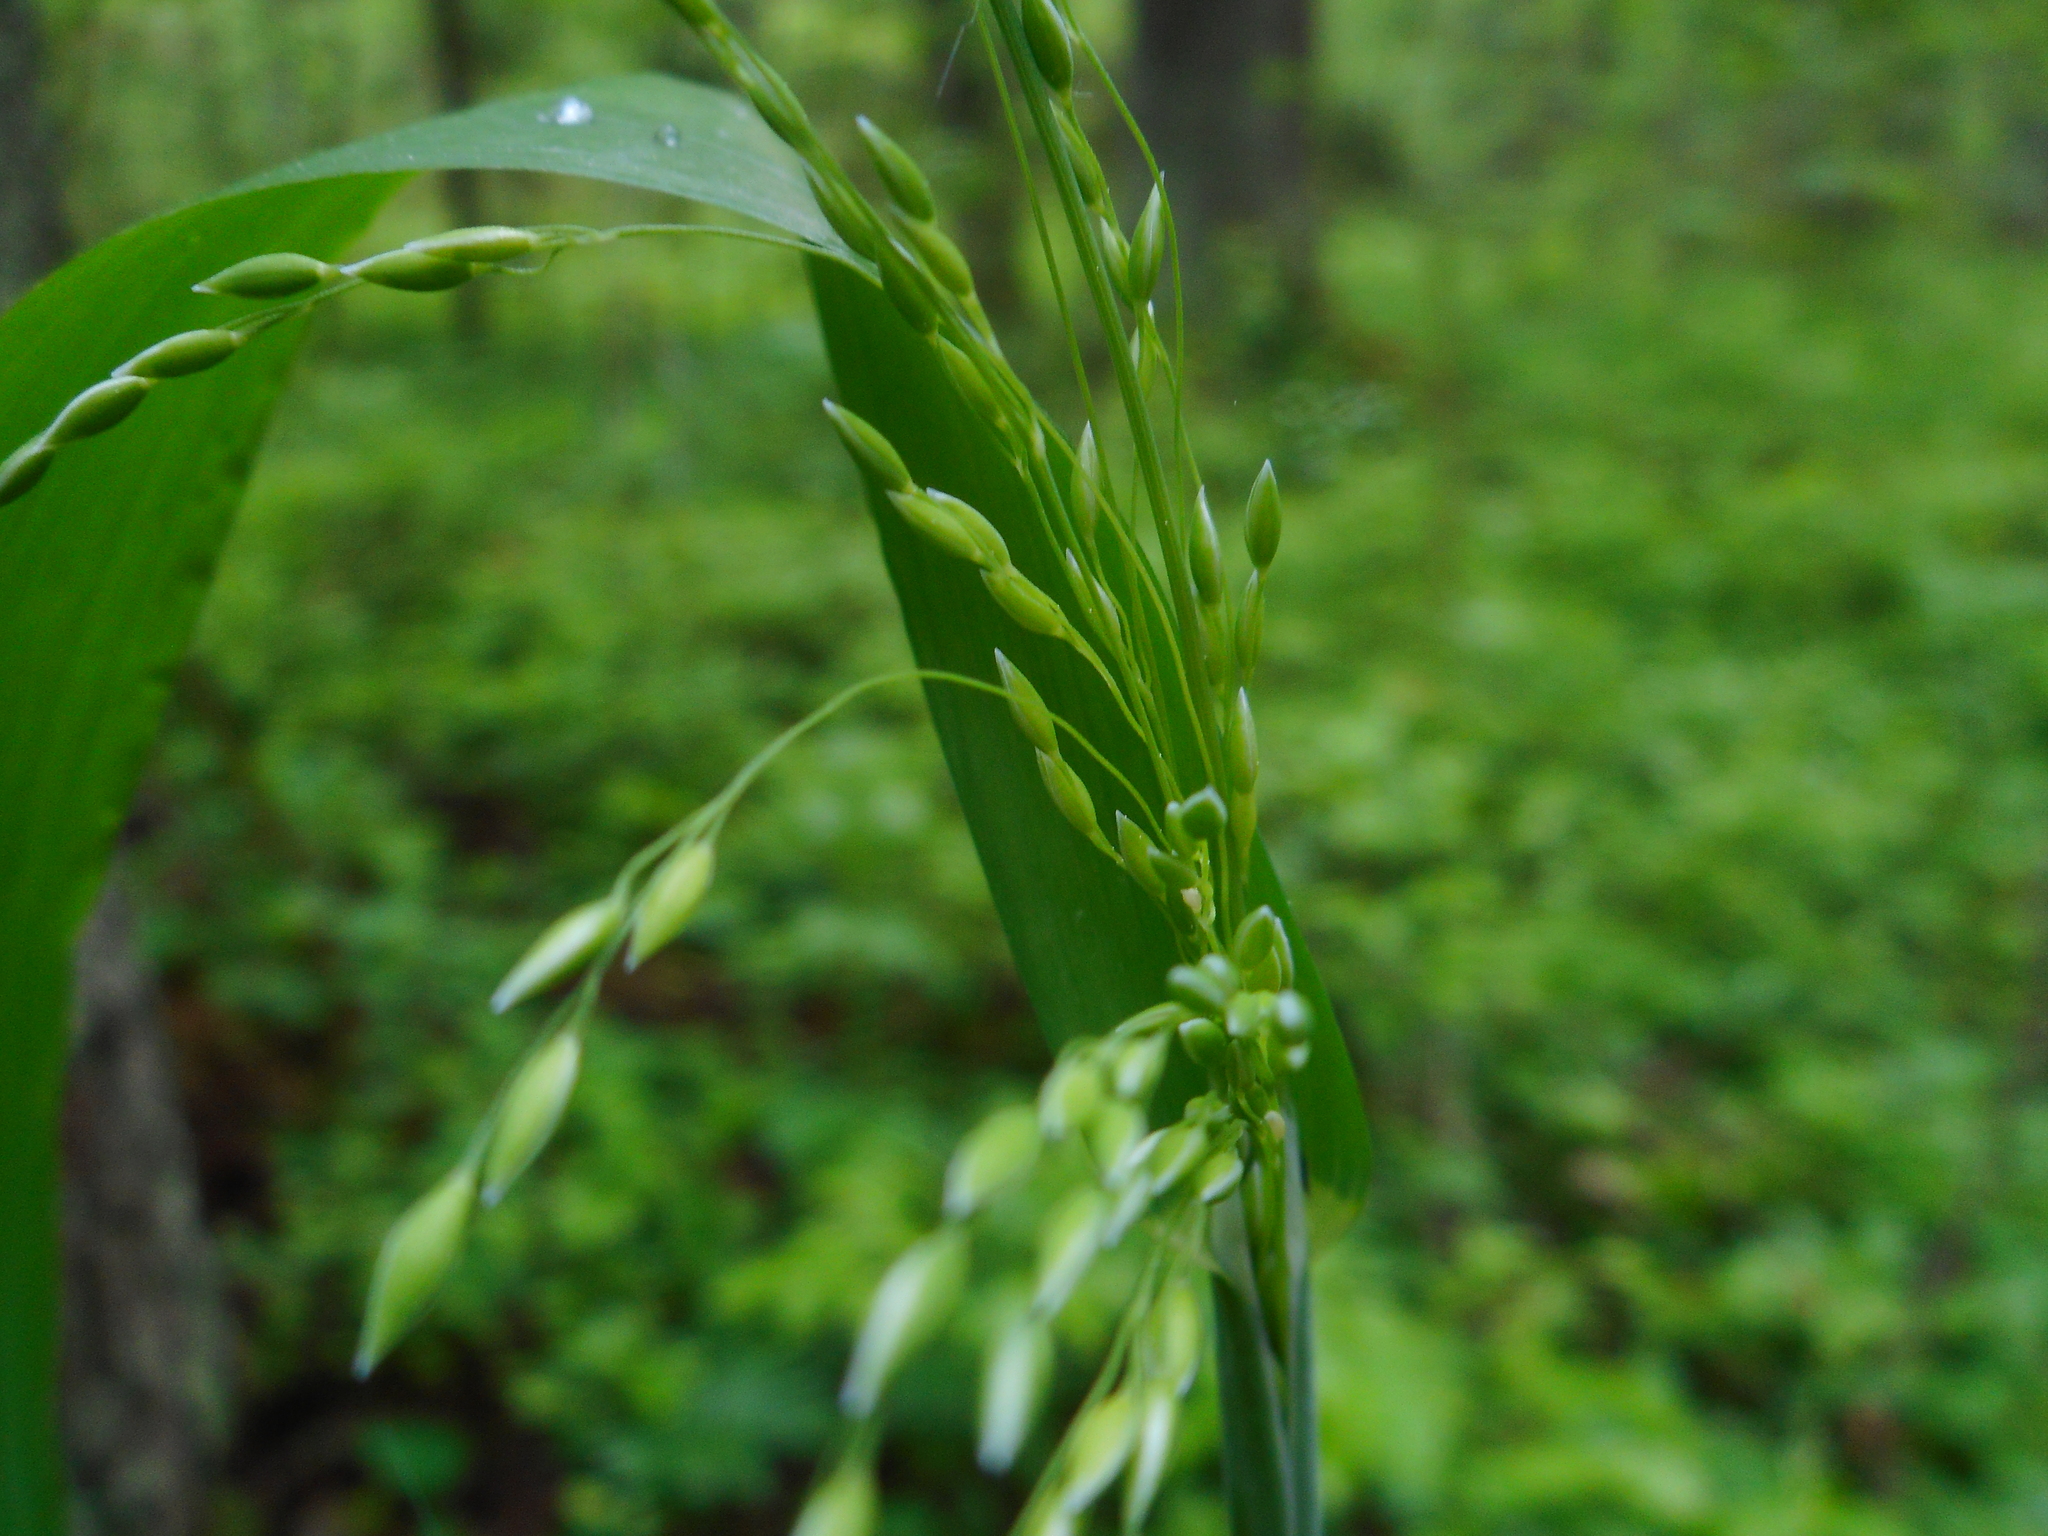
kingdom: Plantae
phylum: Tracheophyta
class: Liliopsida
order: Poales
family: Poaceae
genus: Milium
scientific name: Milium effusum
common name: Wood millet
